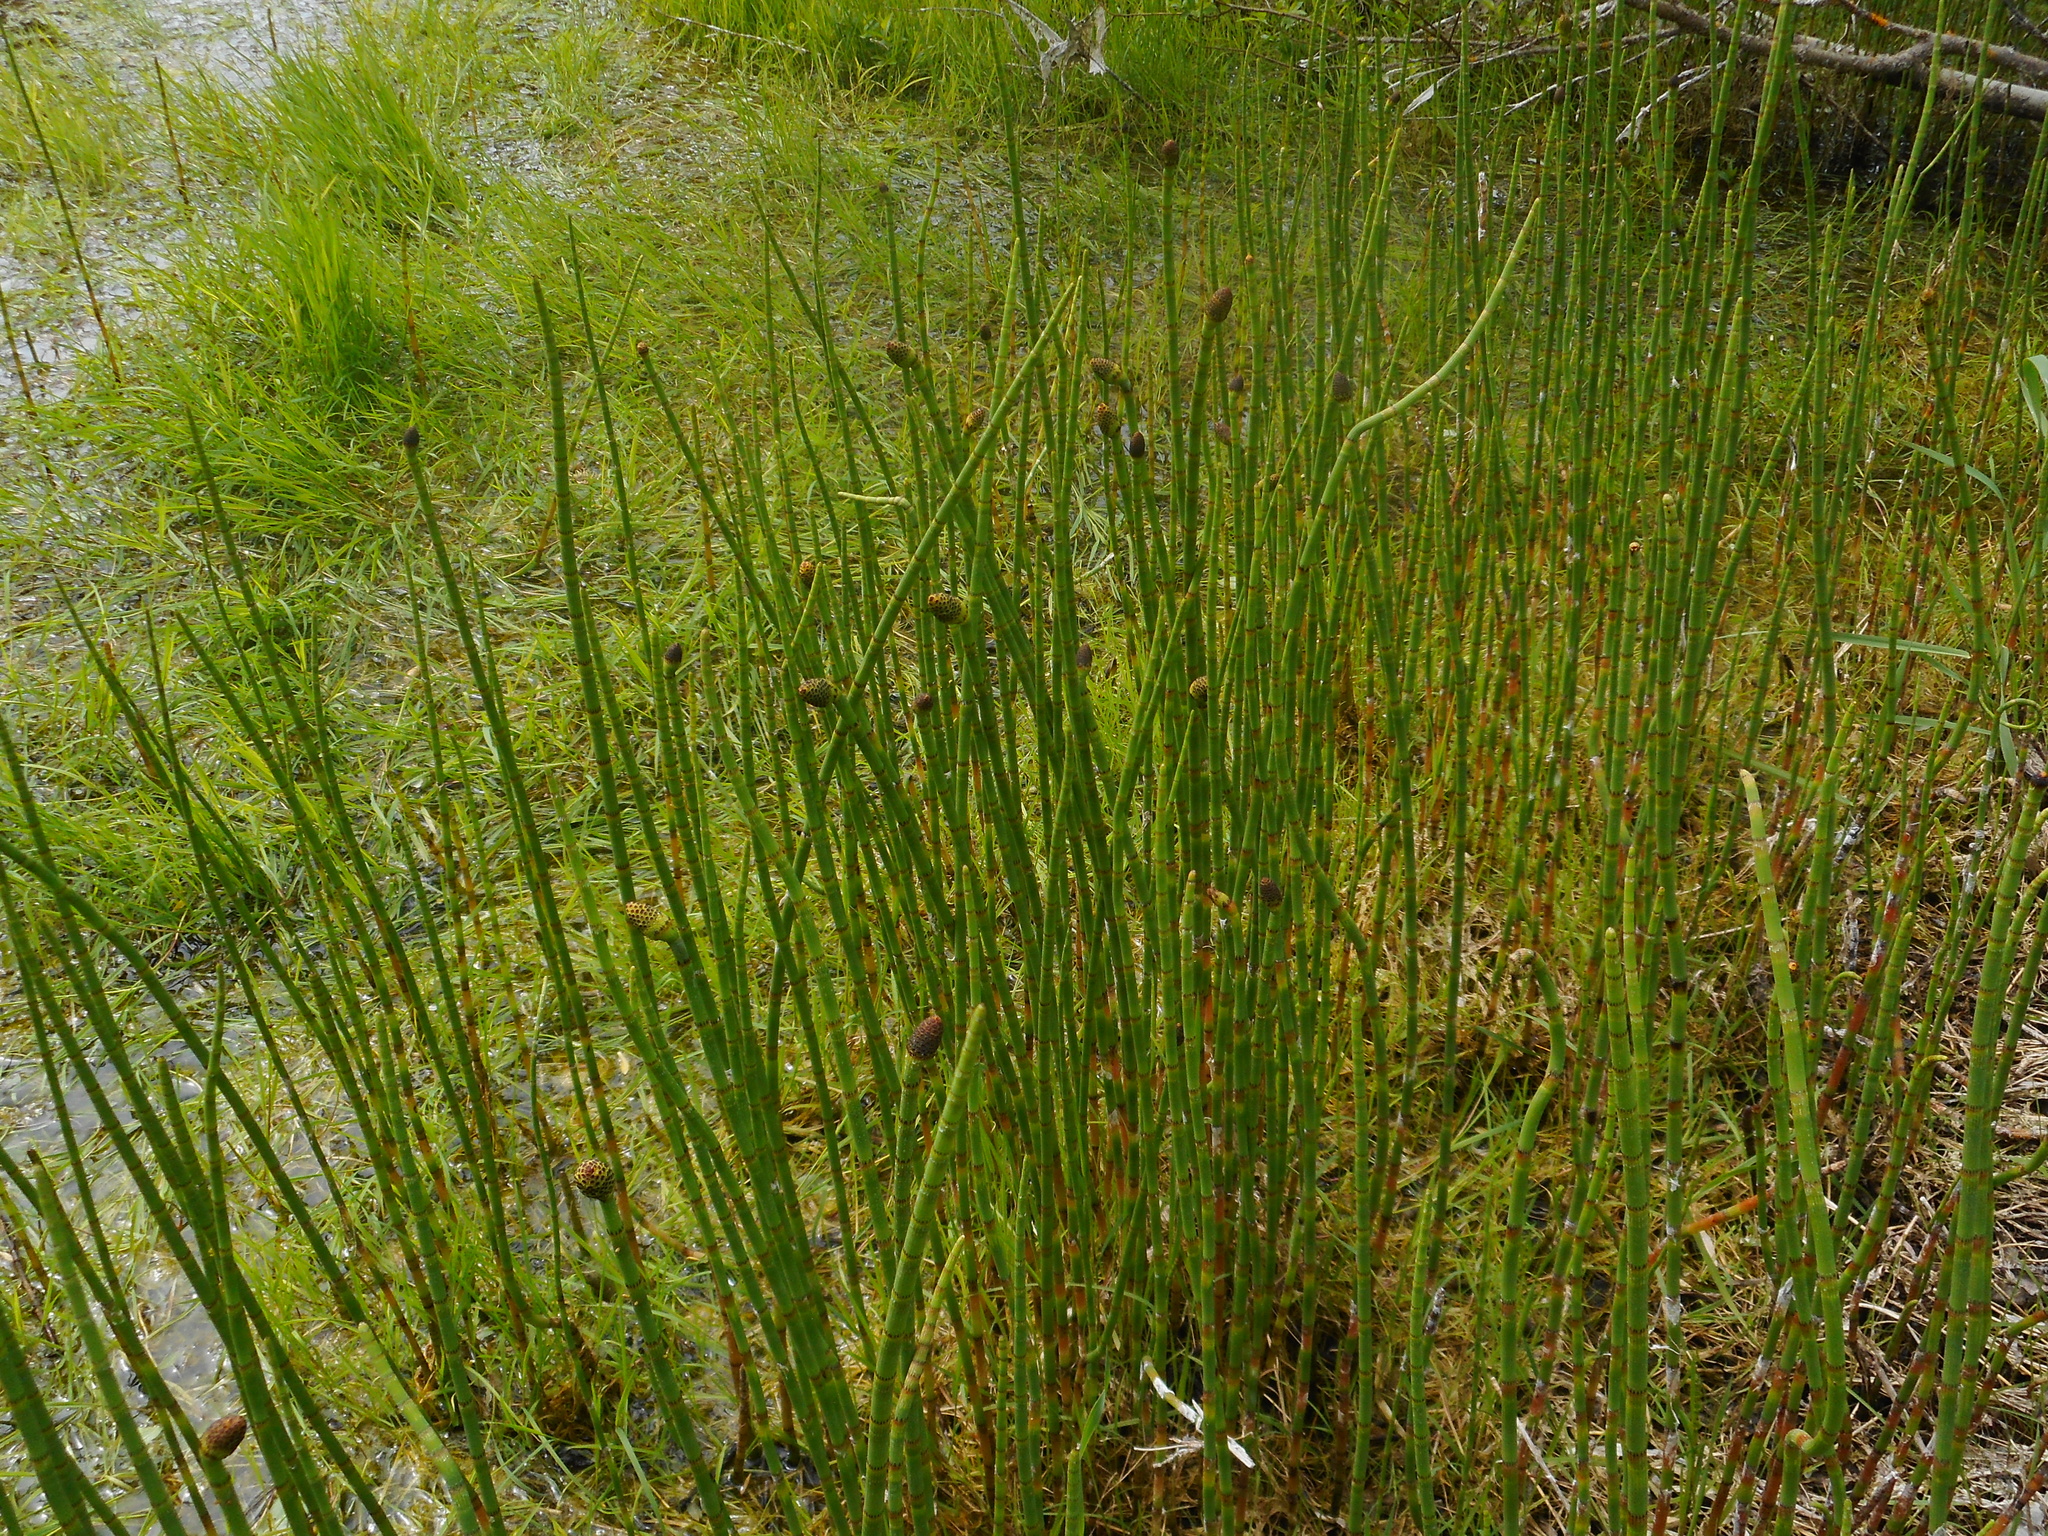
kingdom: Plantae
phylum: Tracheophyta
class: Polypodiopsida
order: Equisetales
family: Equisetaceae
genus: Equisetum
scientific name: Equisetum fluviatile
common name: Water horsetail
